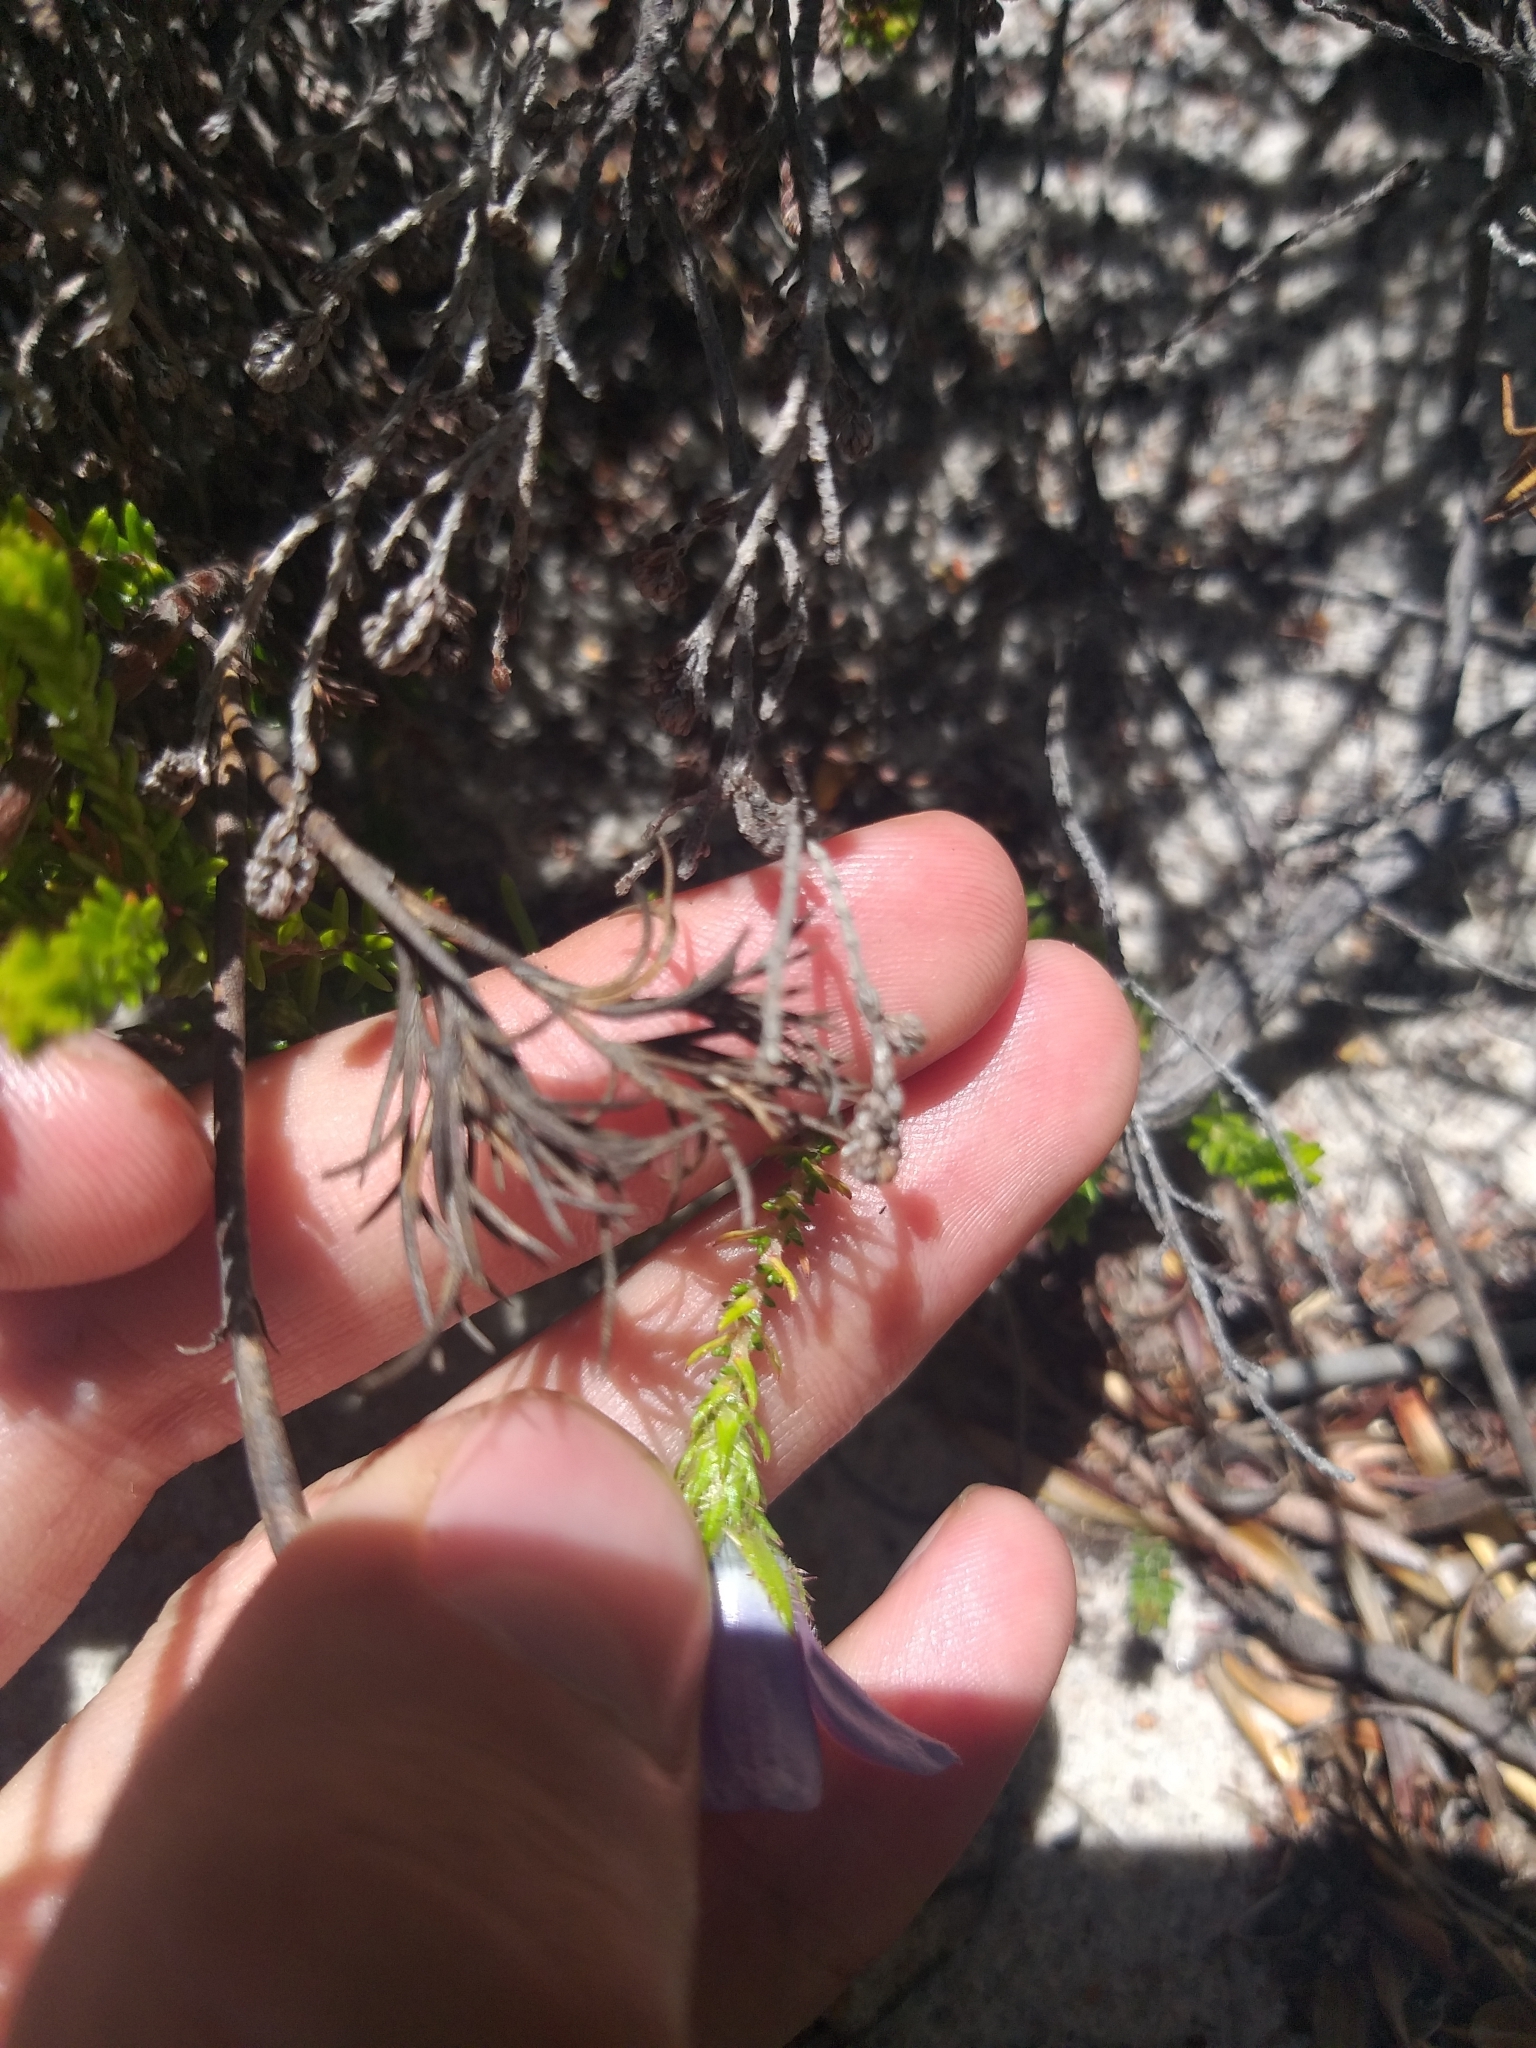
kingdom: Plantae
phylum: Tracheophyta
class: Magnoliopsida
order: Asterales
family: Campanulaceae
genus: Roella
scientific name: Roella triflora
